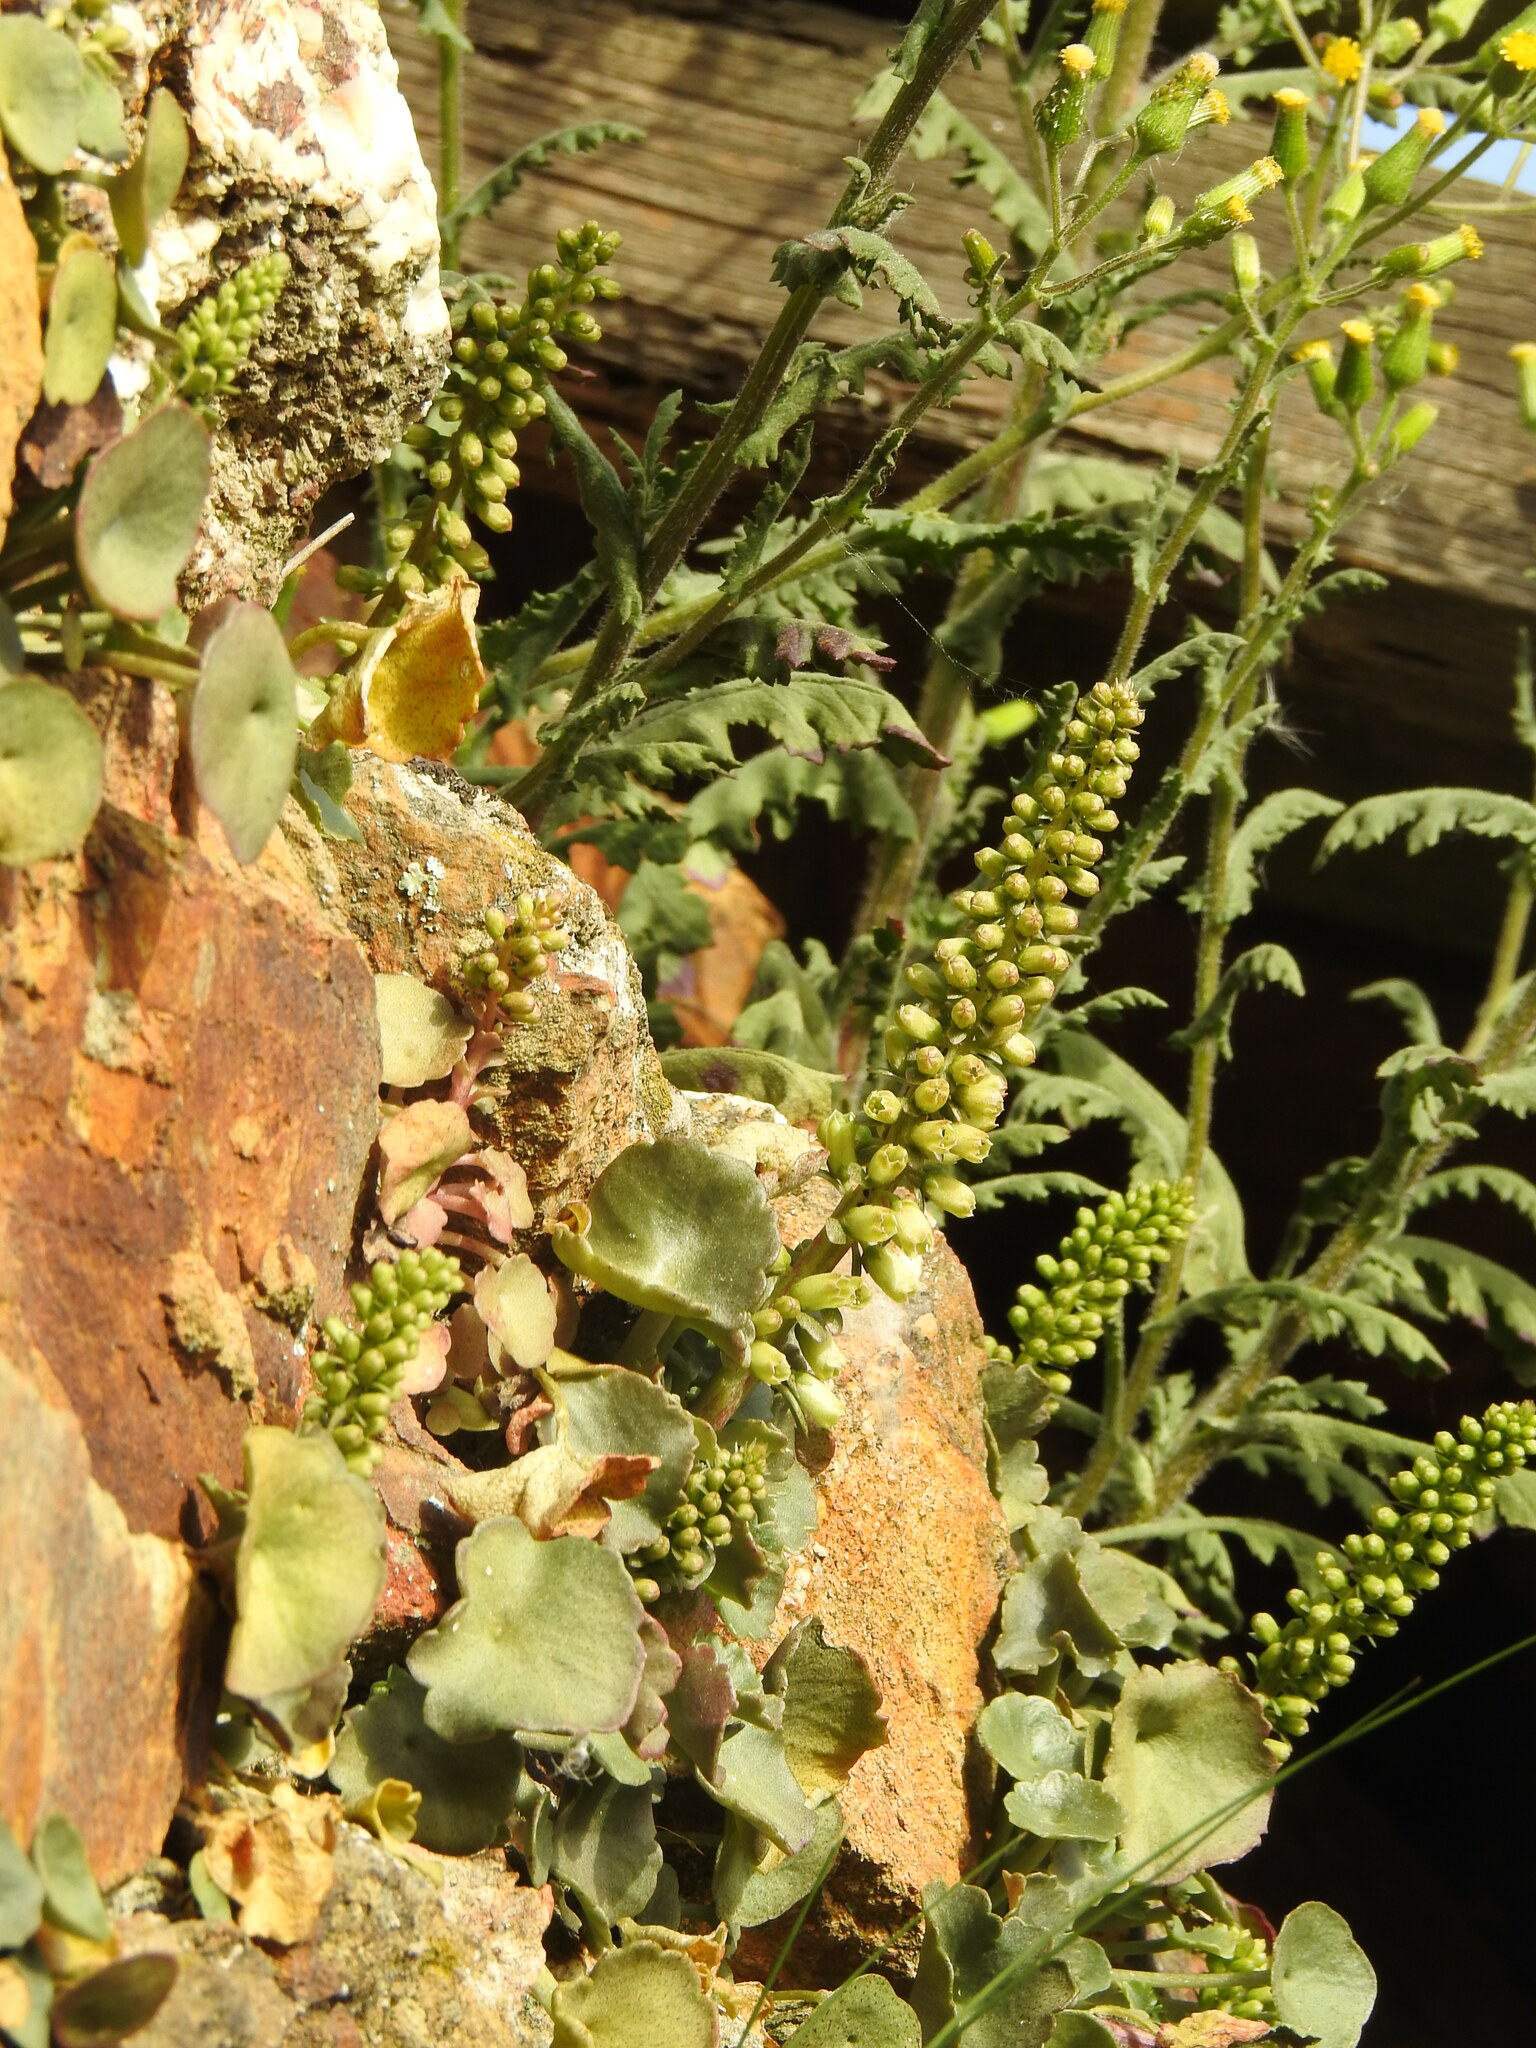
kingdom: Plantae
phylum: Tracheophyta
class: Magnoliopsida
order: Saxifragales
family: Crassulaceae
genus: Umbilicus
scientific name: Umbilicus rupestris
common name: Navelwort
